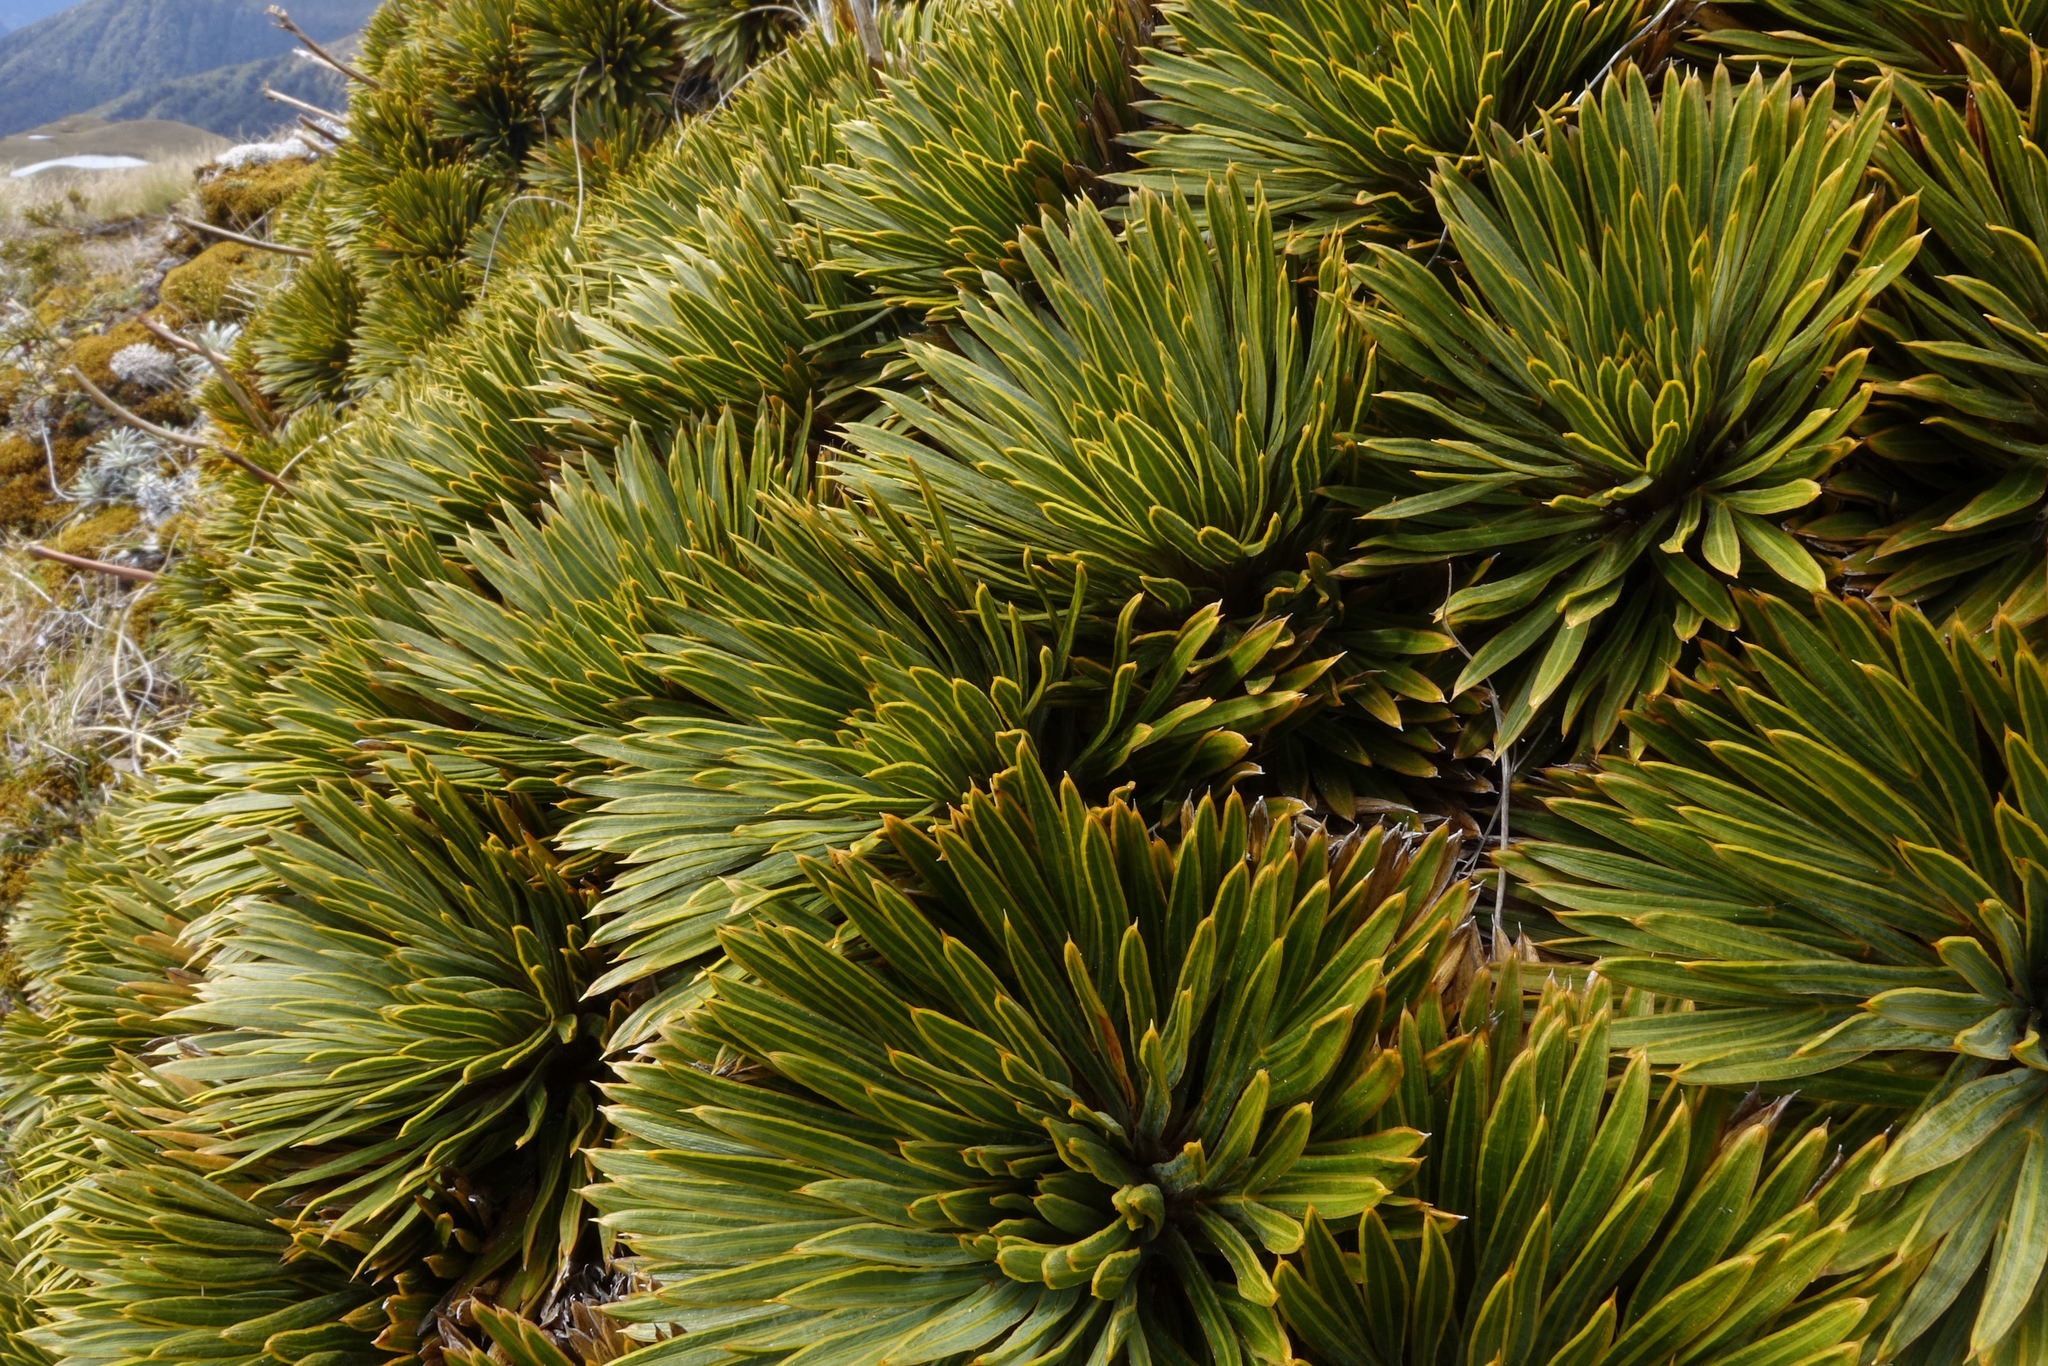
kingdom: Plantae
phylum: Tracheophyta
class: Magnoliopsida
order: Apiales
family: Apiaceae
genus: Aciphylla
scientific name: Aciphylla crosby-smithii
